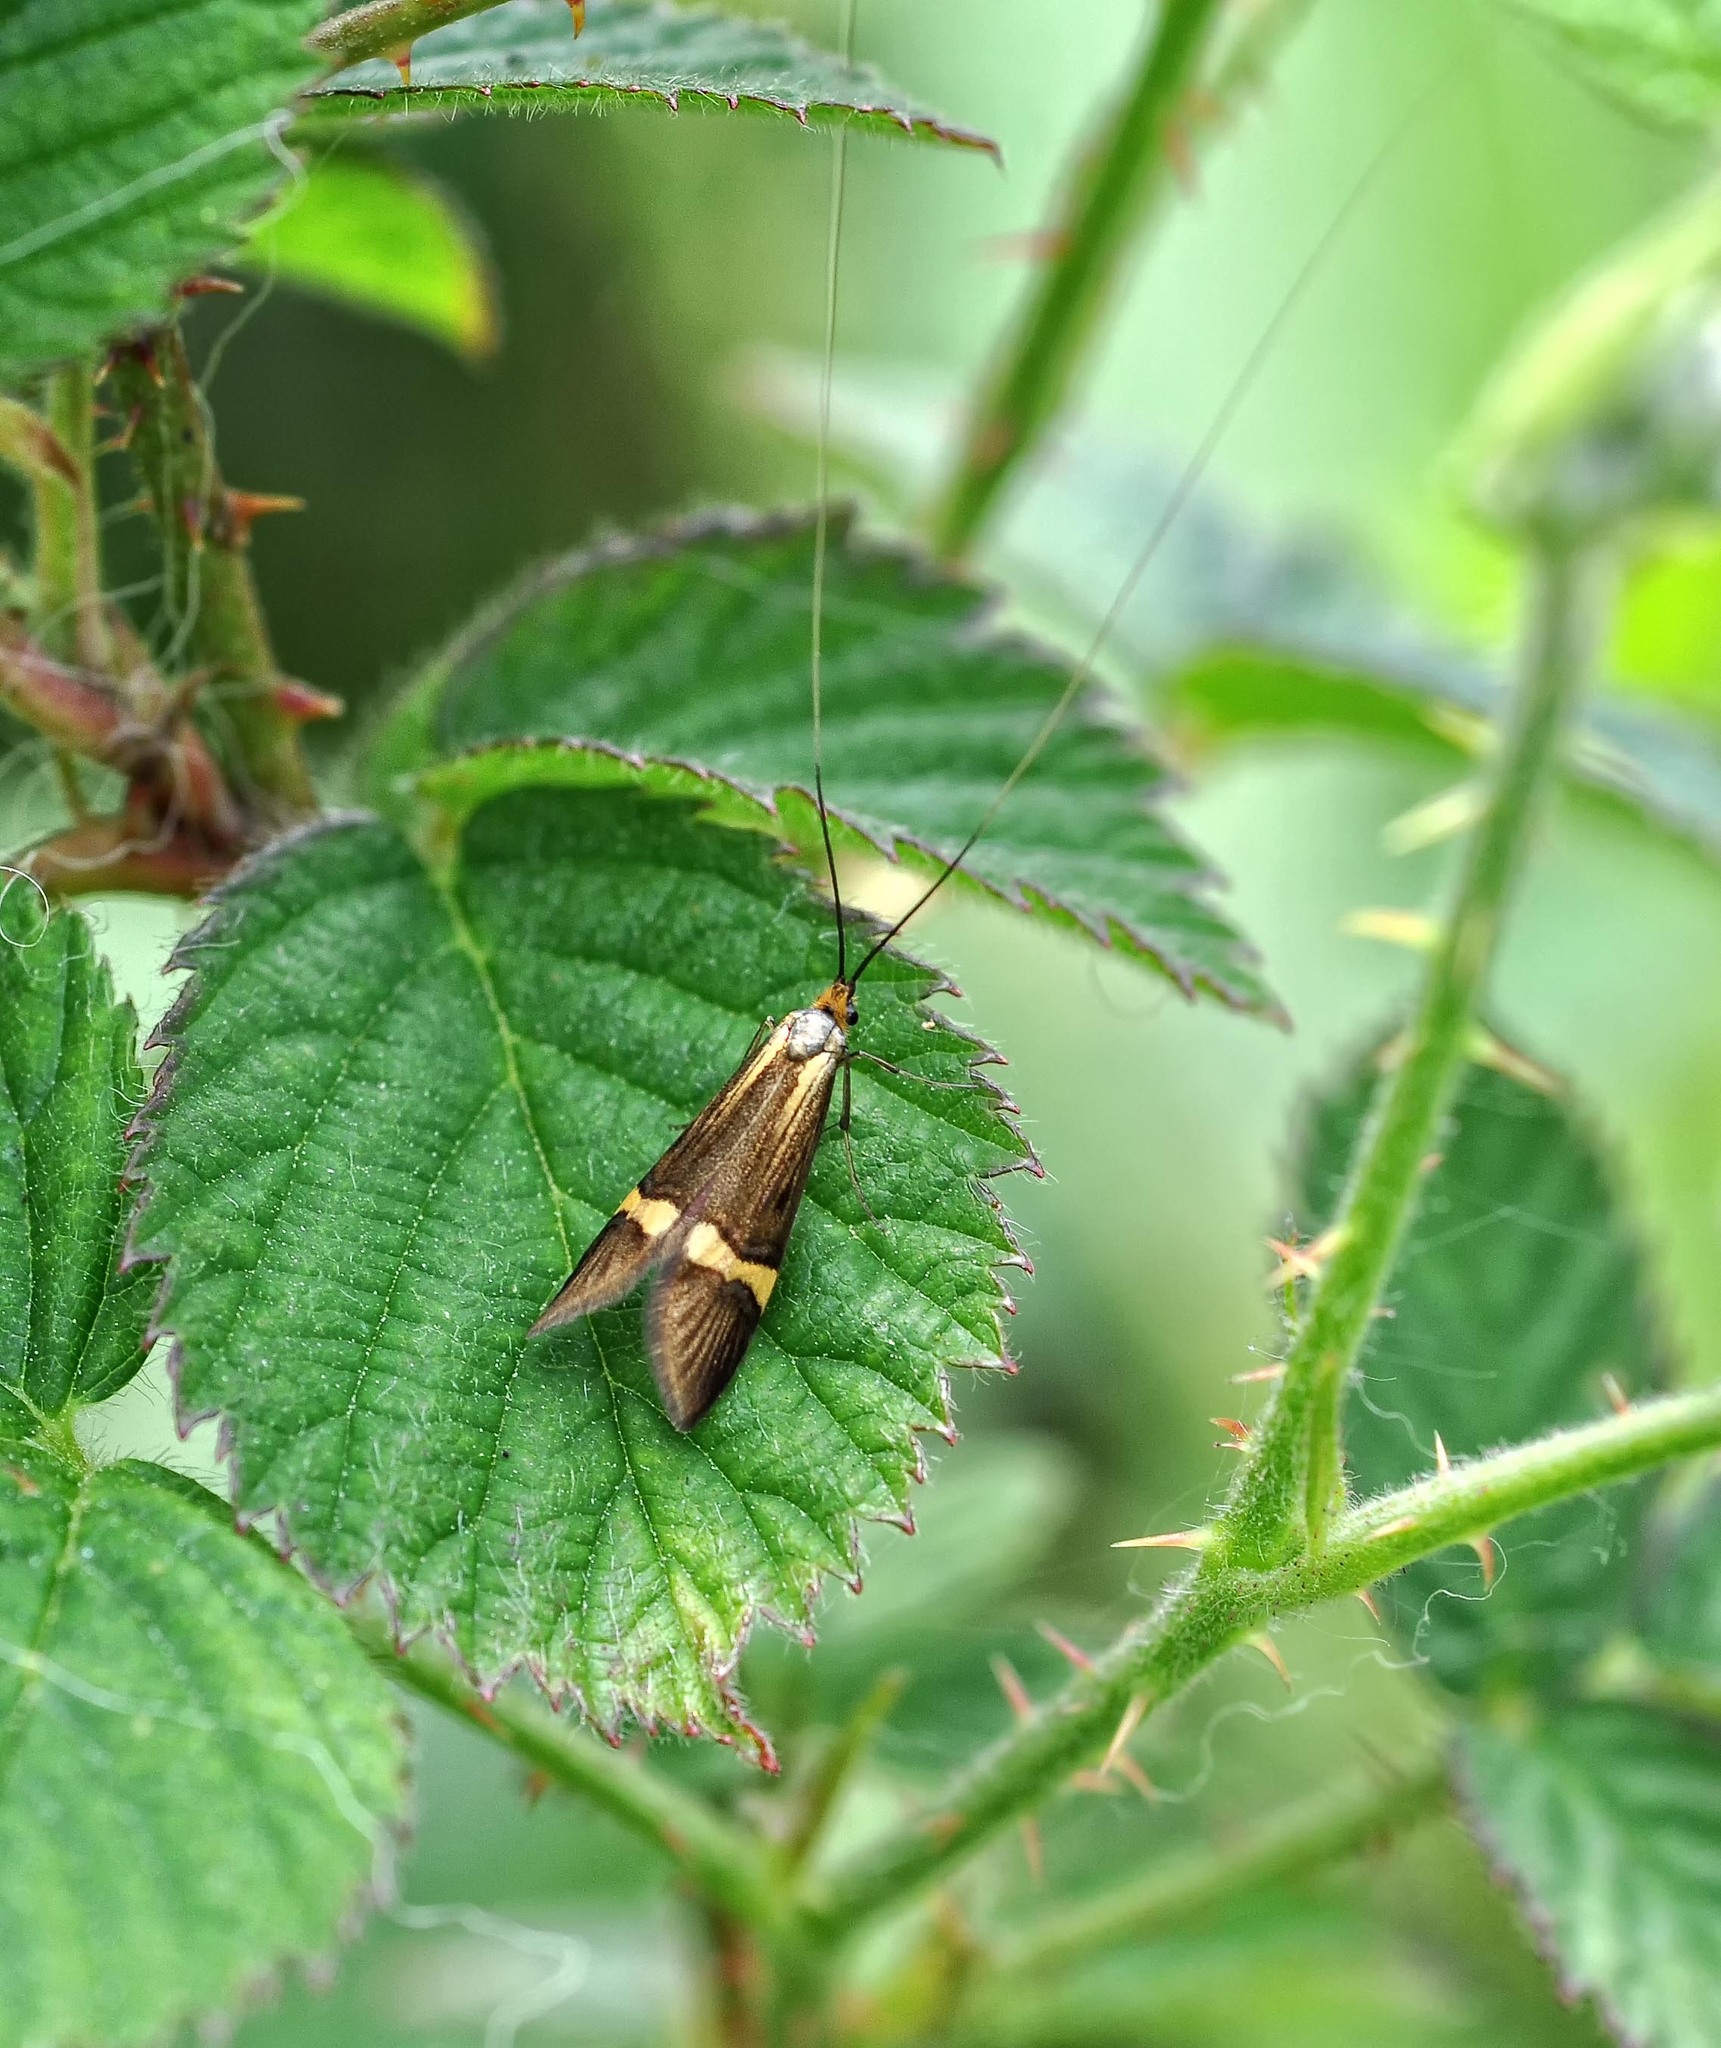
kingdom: Animalia
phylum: Arthropoda
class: Insecta
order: Lepidoptera
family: Adelidae
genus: Nemophora
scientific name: Nemophora degeerella
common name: Yellow-barred long-horn
